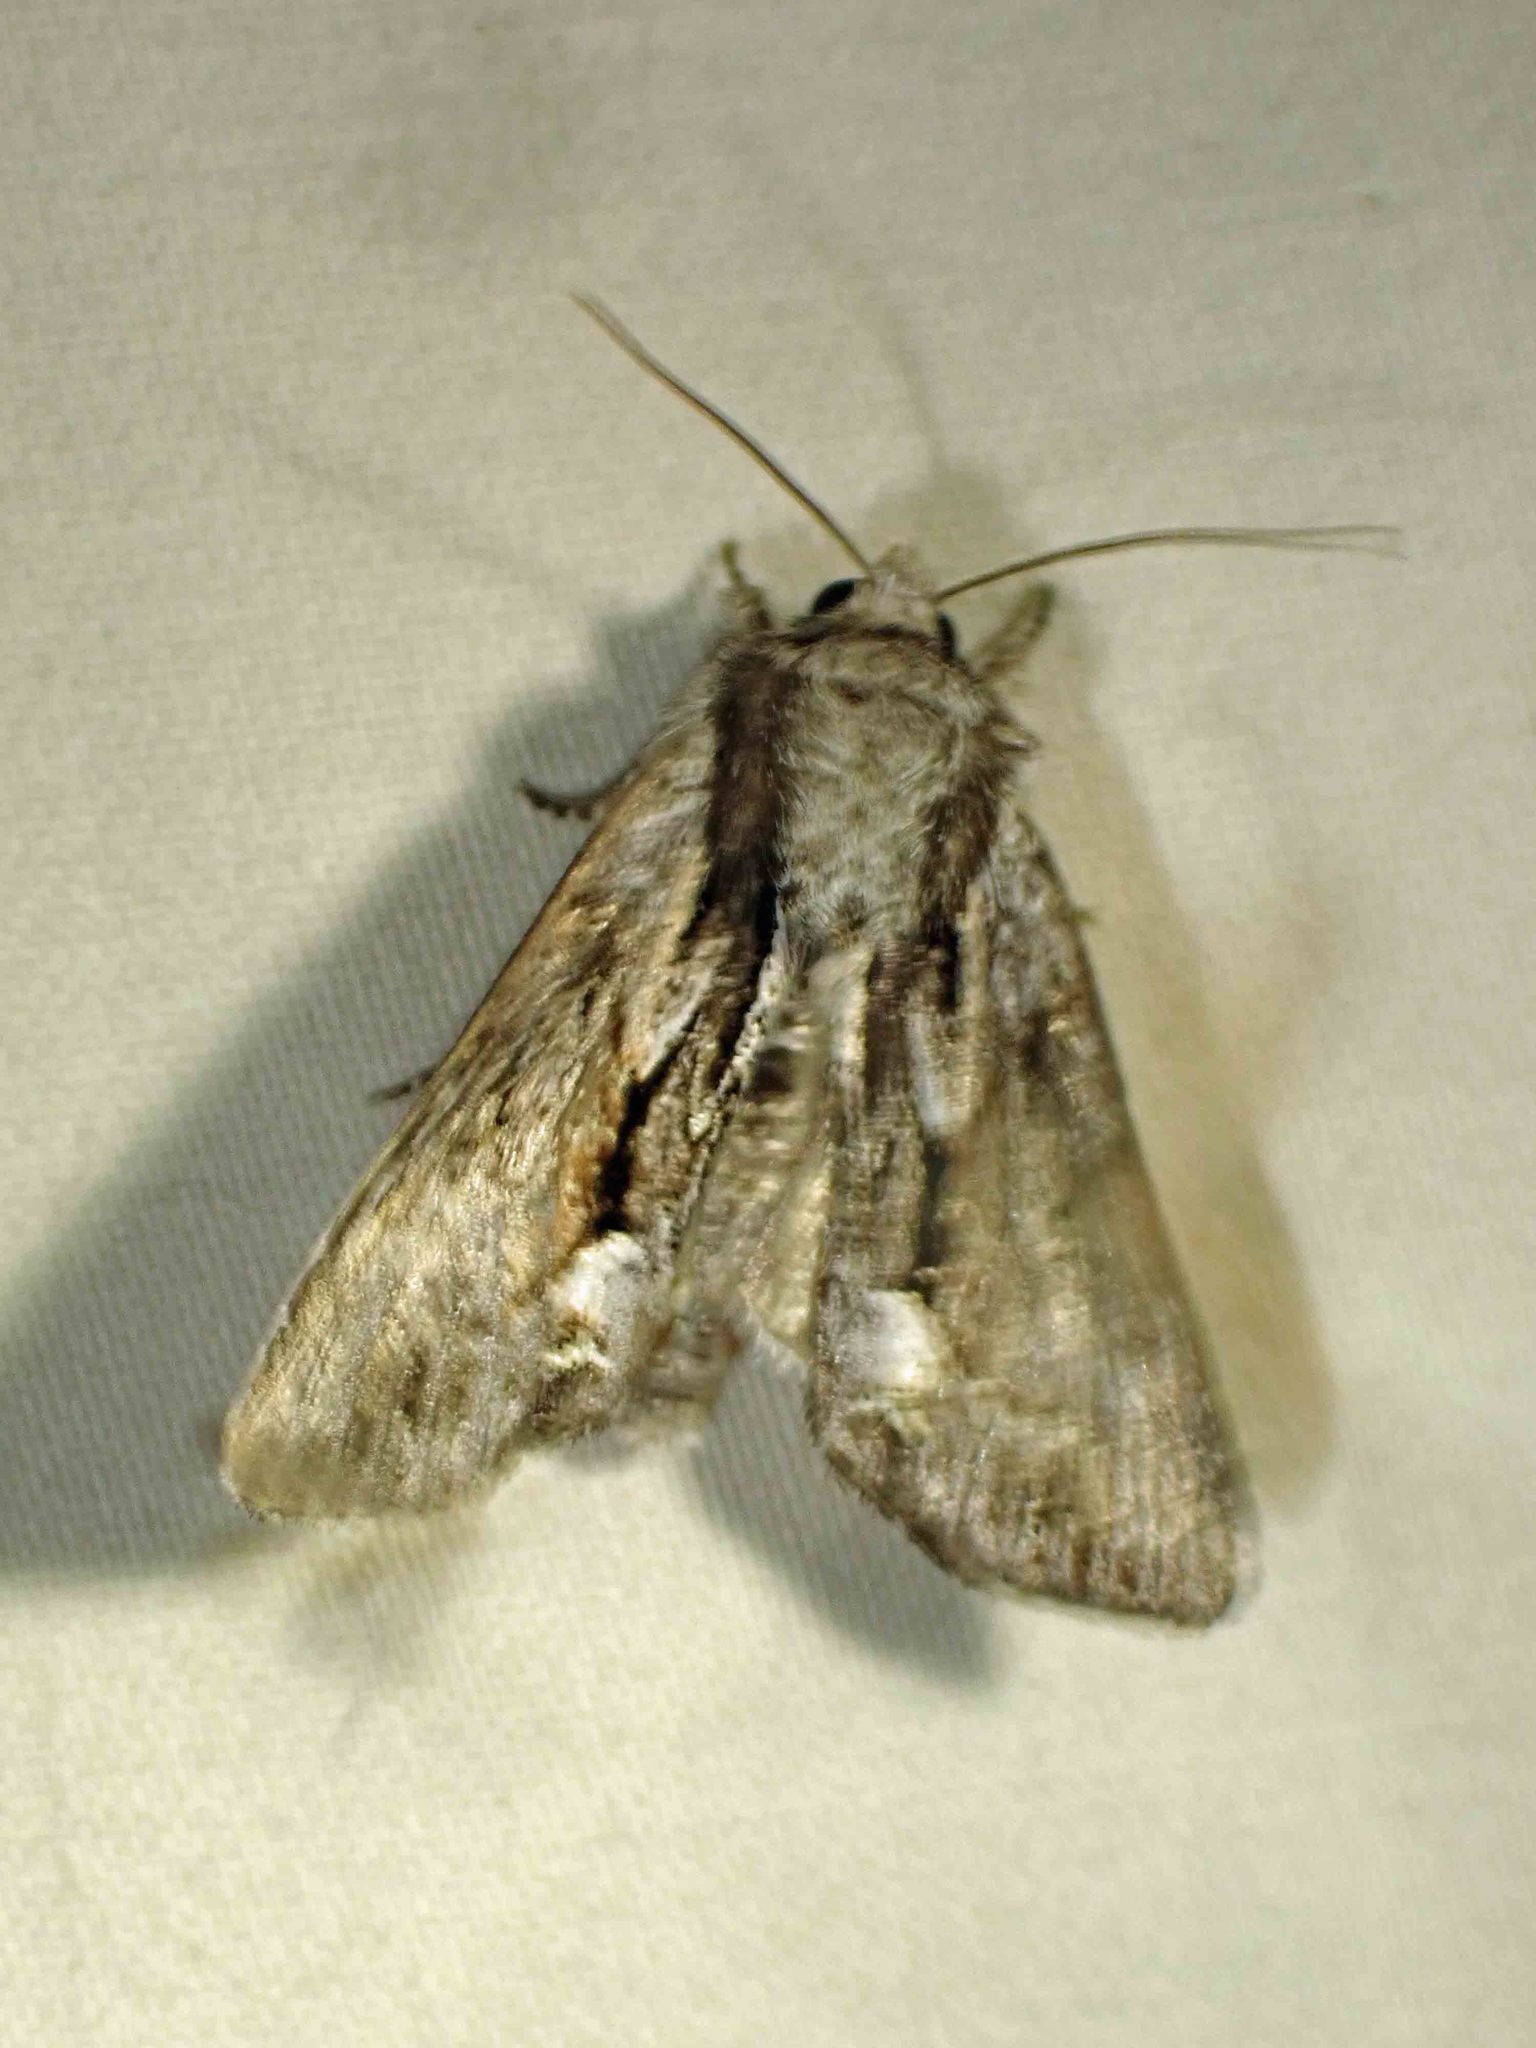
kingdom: Animalia
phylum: Arthropoda
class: Insecta
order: Lepidoptera
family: Noctuidae
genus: Hyppa
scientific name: Hyppa xylinoides
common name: Common hyppa moth
